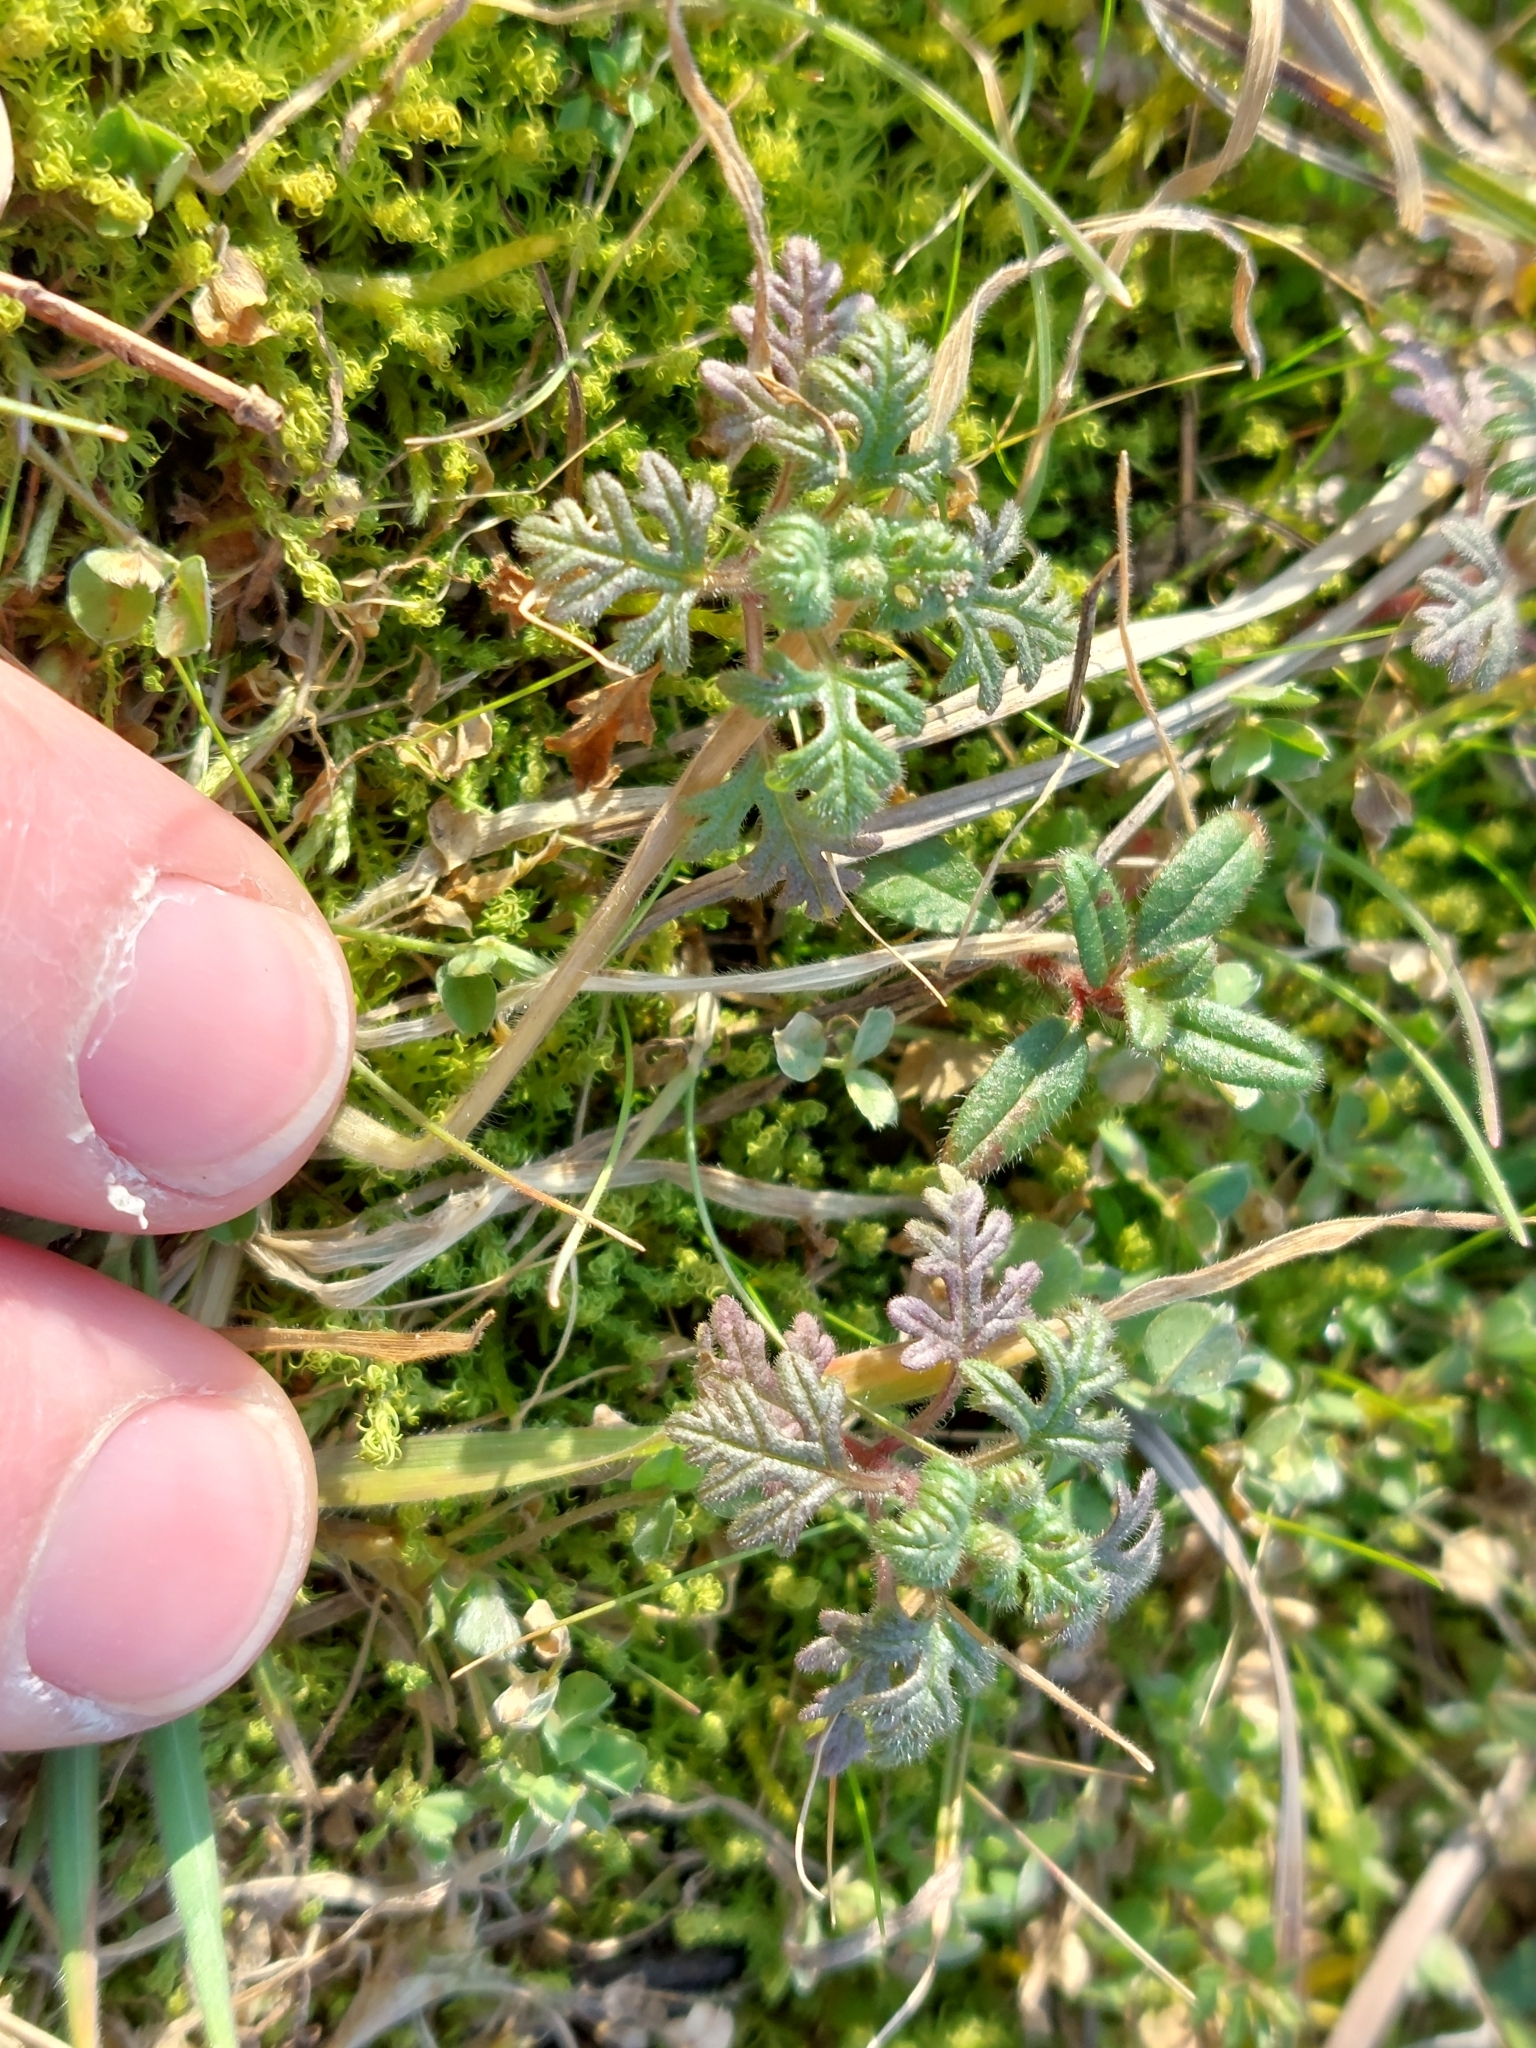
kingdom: Plantae
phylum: Tracheophyta
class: Magnoliopsida
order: Lamiales
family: Lamiaceae
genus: Teucrium
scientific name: Teucrium botrys
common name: Cut-leaved germander
